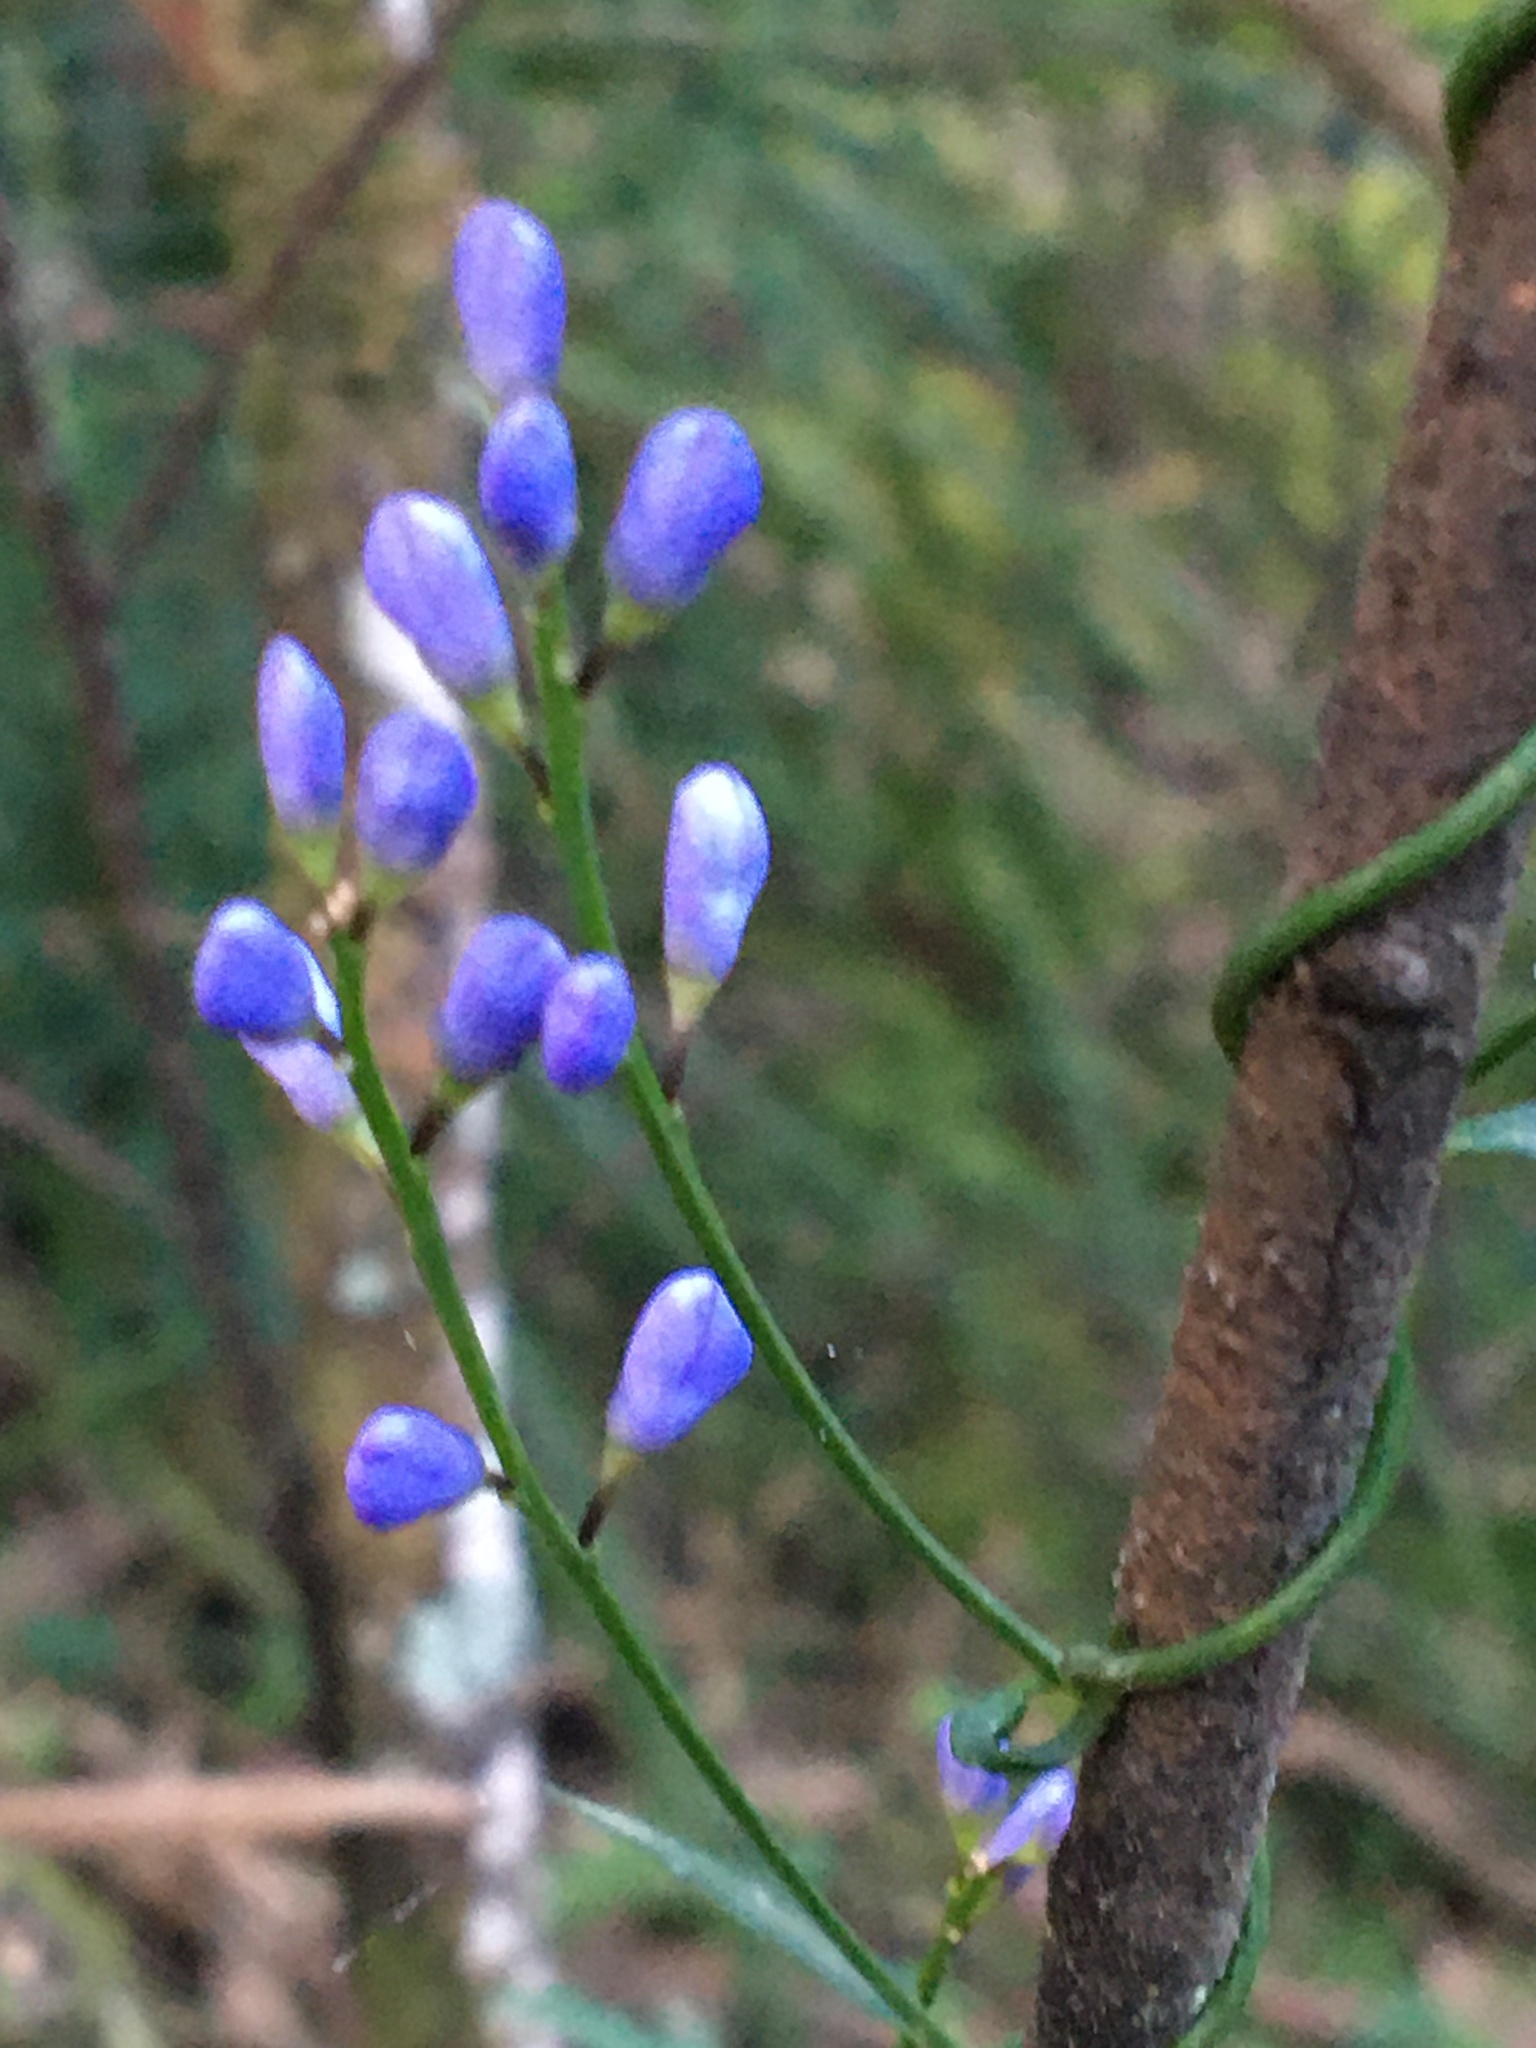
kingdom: Plantae
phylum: Tracheophyta
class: Magnoliopsida
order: Fabales
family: Polygalaceae
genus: Comesperma
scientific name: Comesperma volubile
